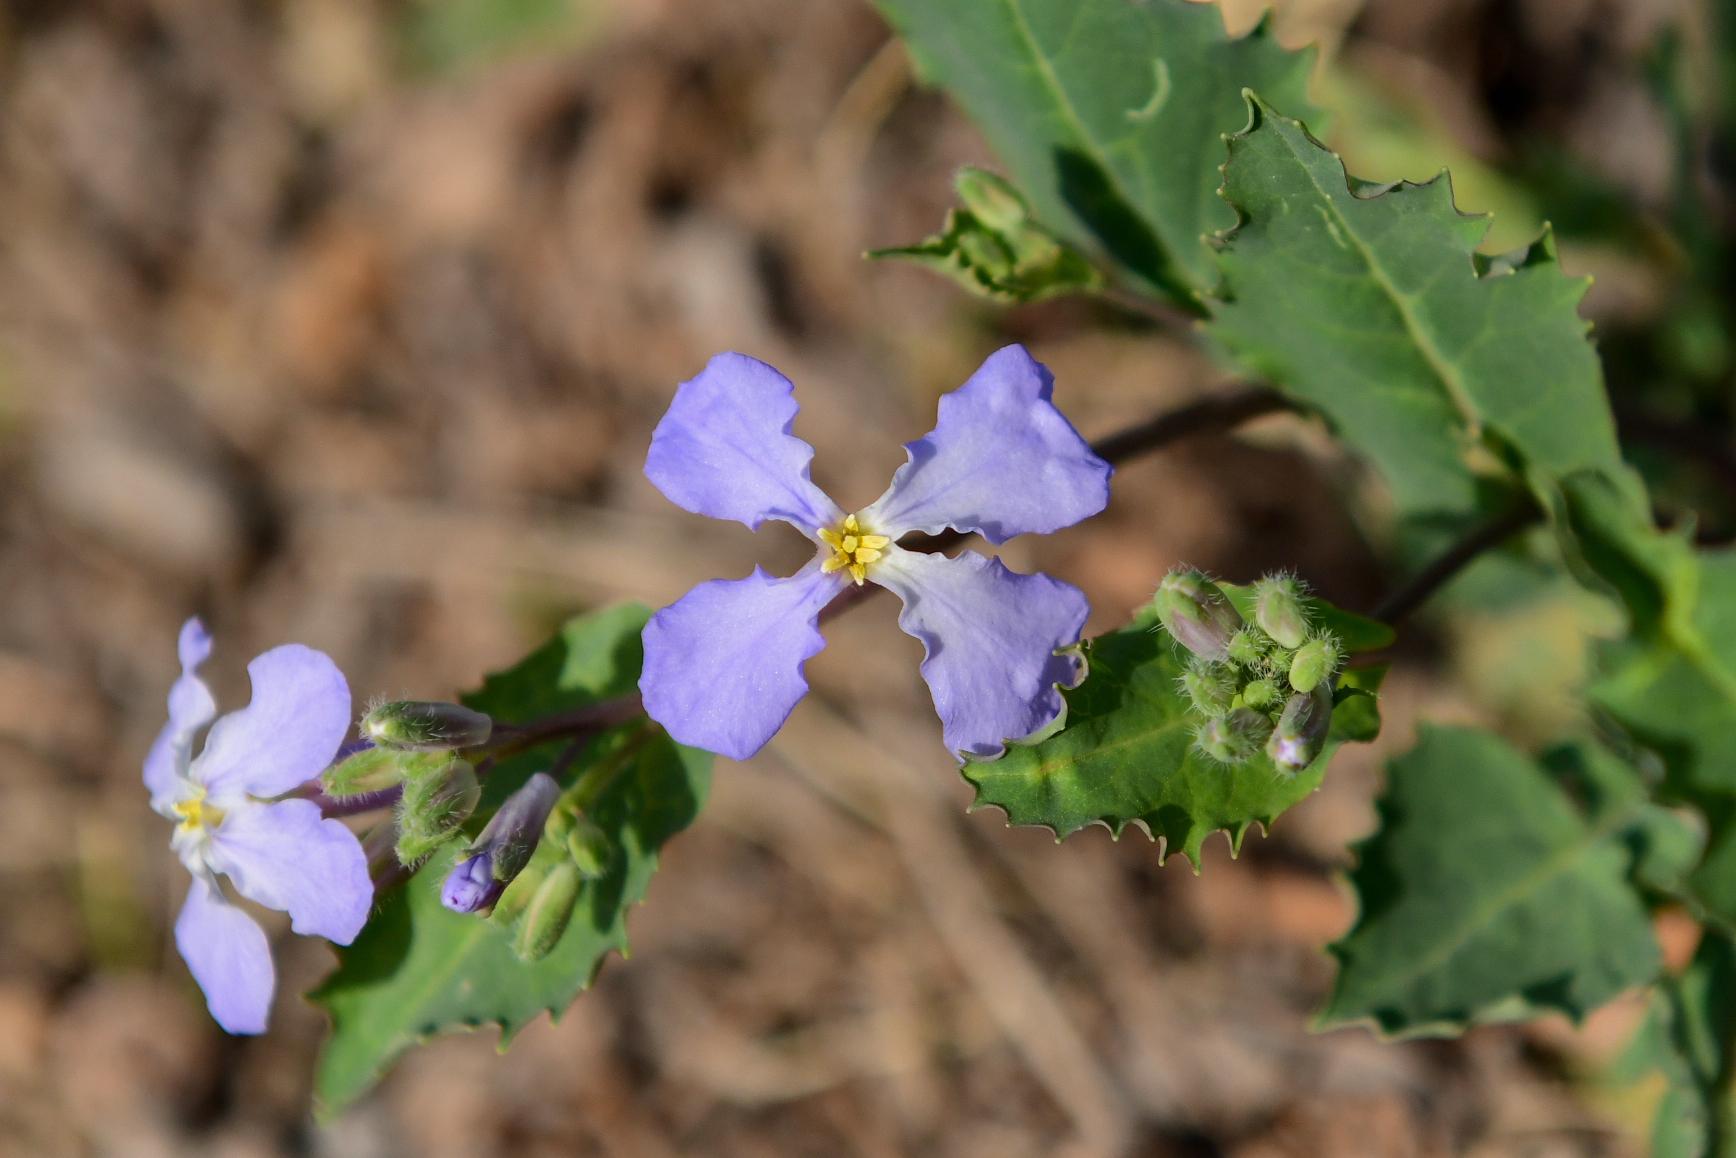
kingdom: Plantae
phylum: Tracheophyta
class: Magnoliopsida
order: Brassicales
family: Brassicaceae
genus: Orychophragmus
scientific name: Orychophragmus violaceus
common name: Mustard
